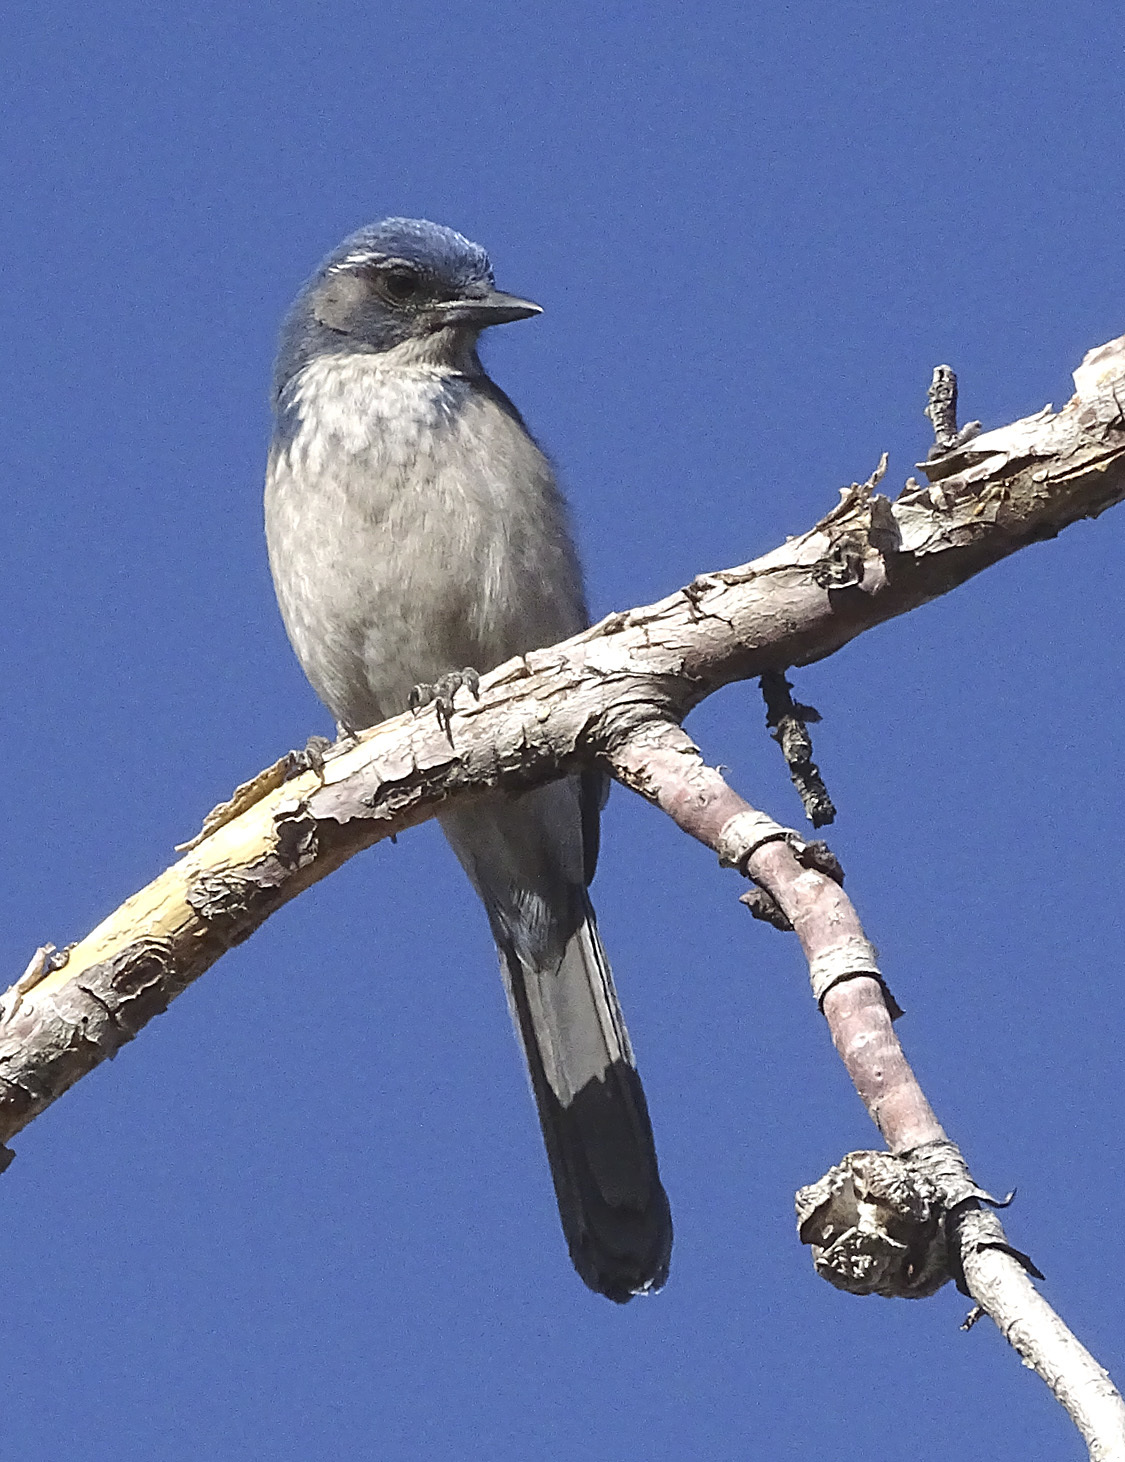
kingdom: Animalia
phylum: Chordata
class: Aves
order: Passeriformes
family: Corvidae
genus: Aphelocoma
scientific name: Aphelocoma californica
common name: California scrub-jay
